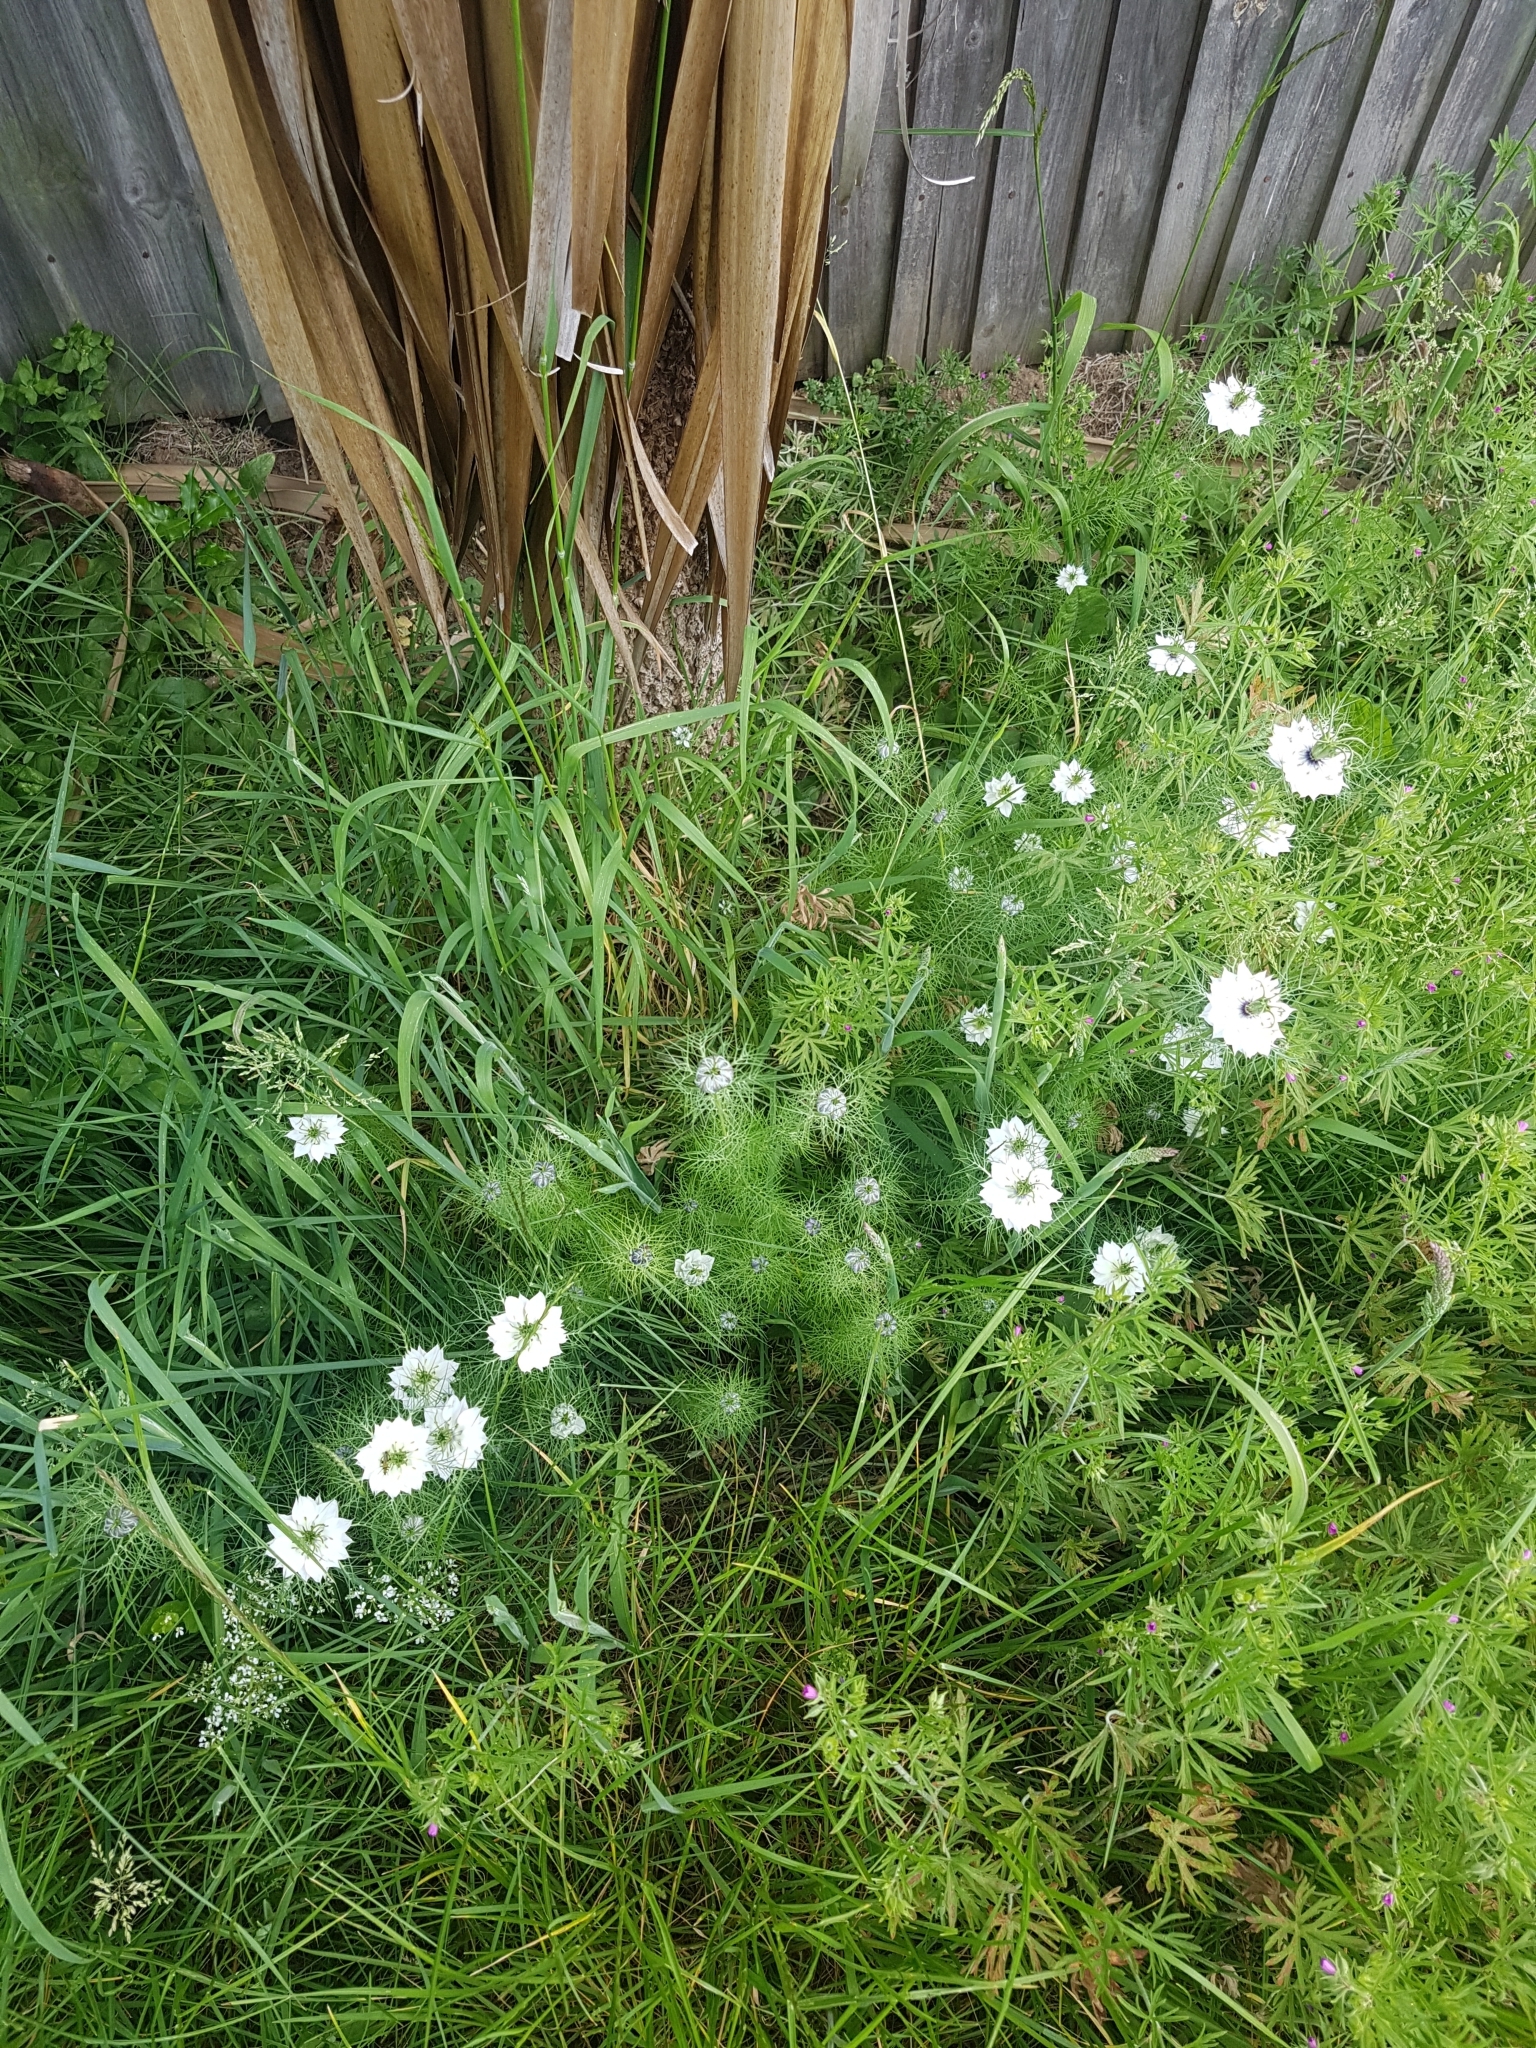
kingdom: Plantae
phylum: Tracheophyta
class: Magnoliopsida
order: Ranunculales
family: Ranunculaceae
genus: Nigella
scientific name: Nigella damascena
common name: Love-in-a-mist
